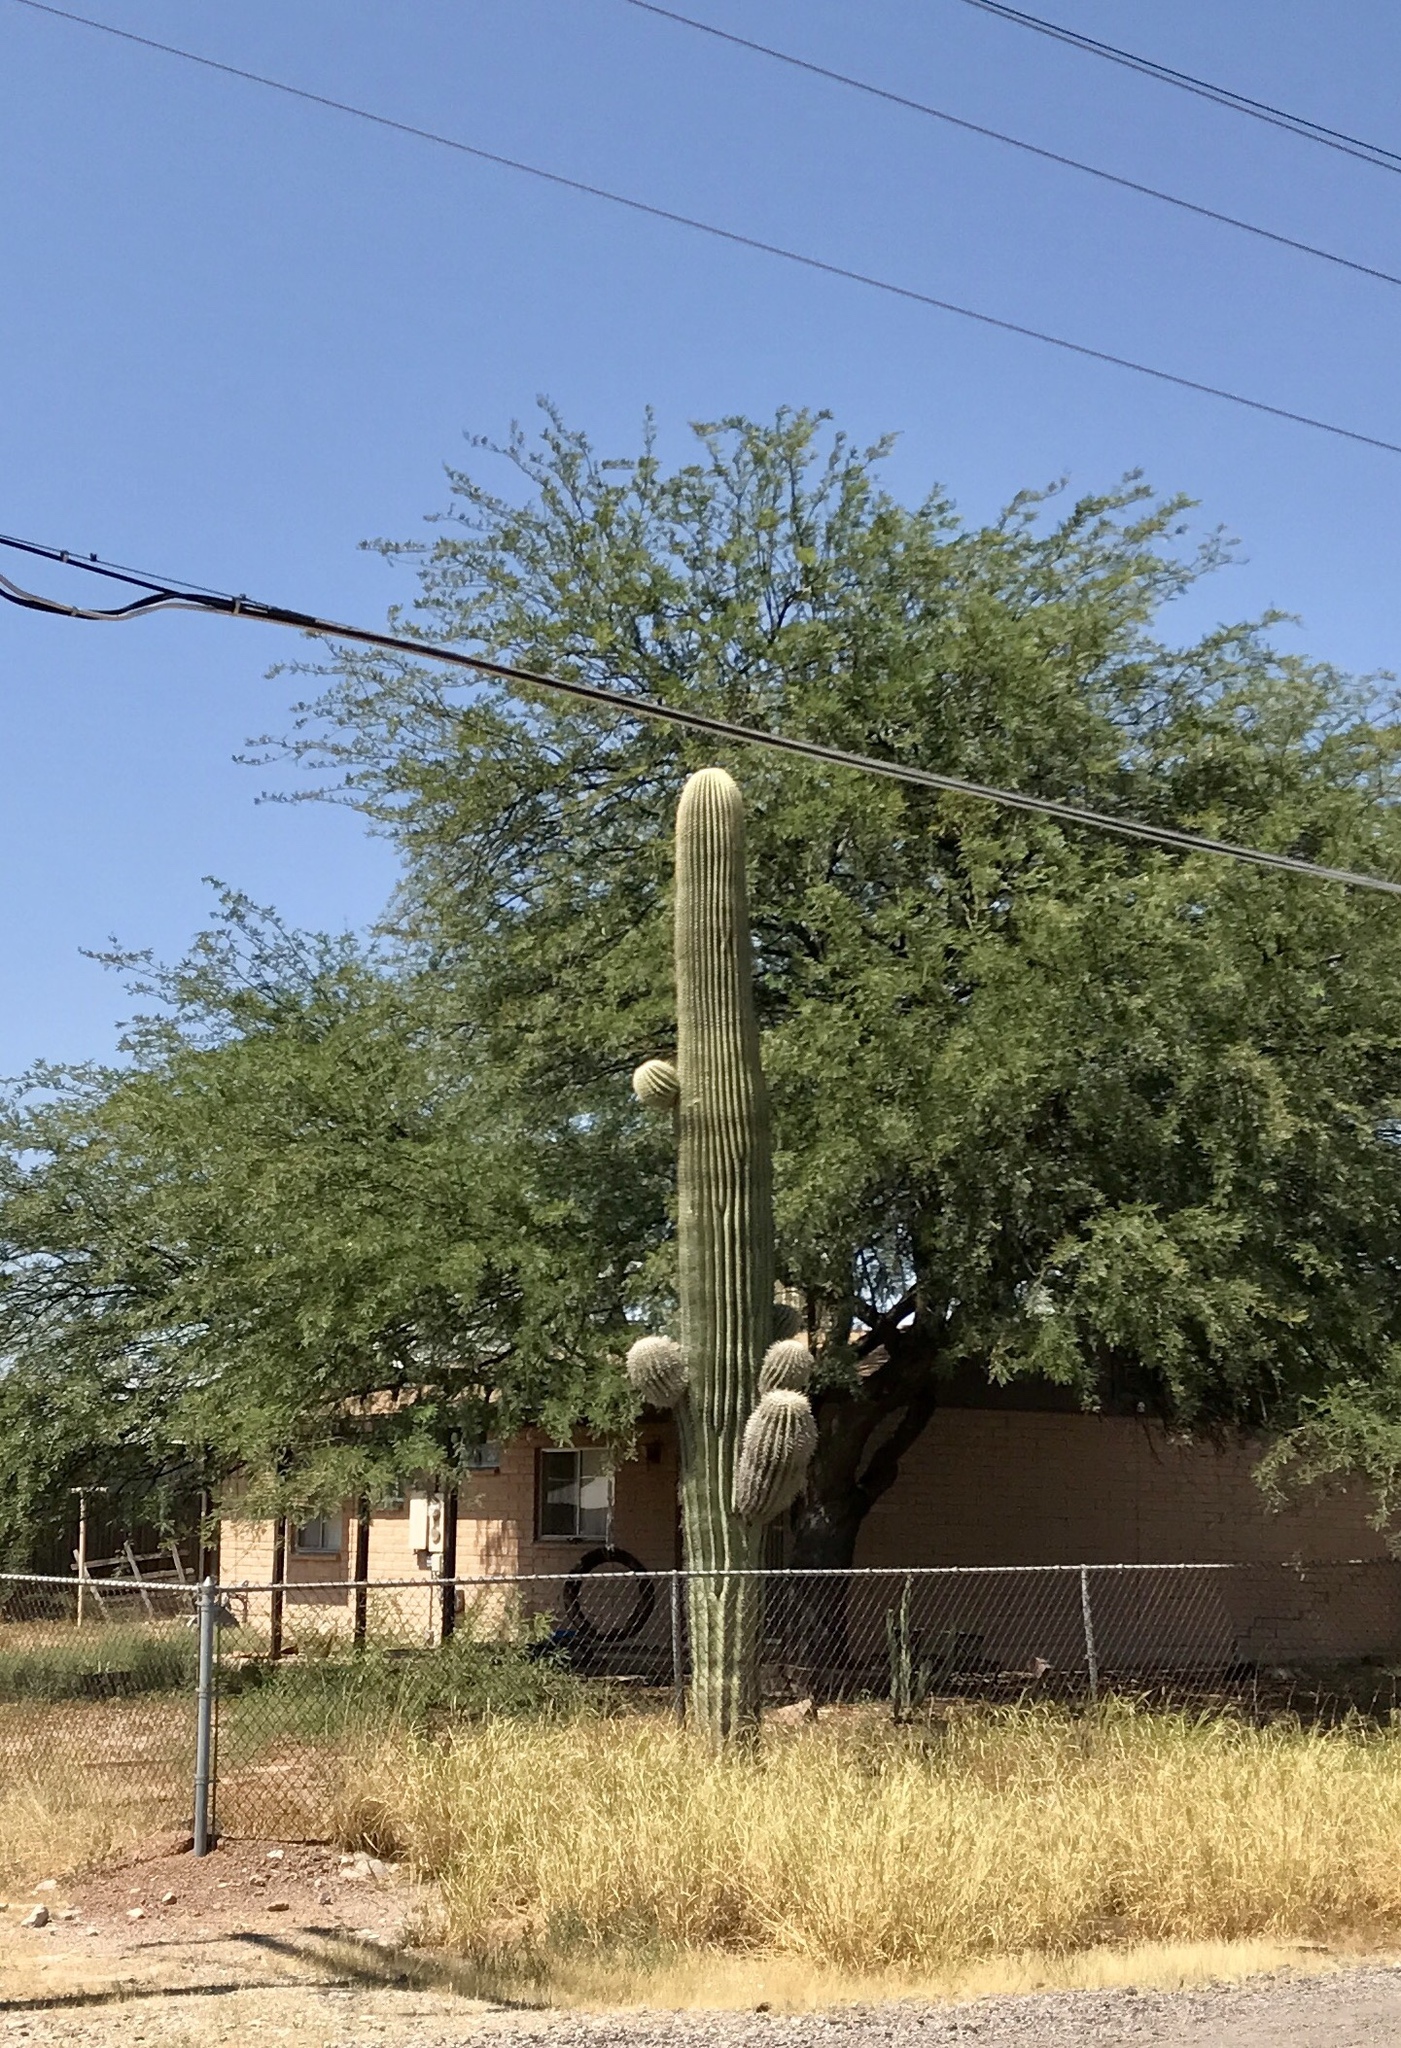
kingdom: Plantae
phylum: Tracheophyta
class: Magnoliopsida
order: Caryophyllales
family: Cactaceae
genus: Carnegiea
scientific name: Carnegiea gigantea
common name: Saguaro
